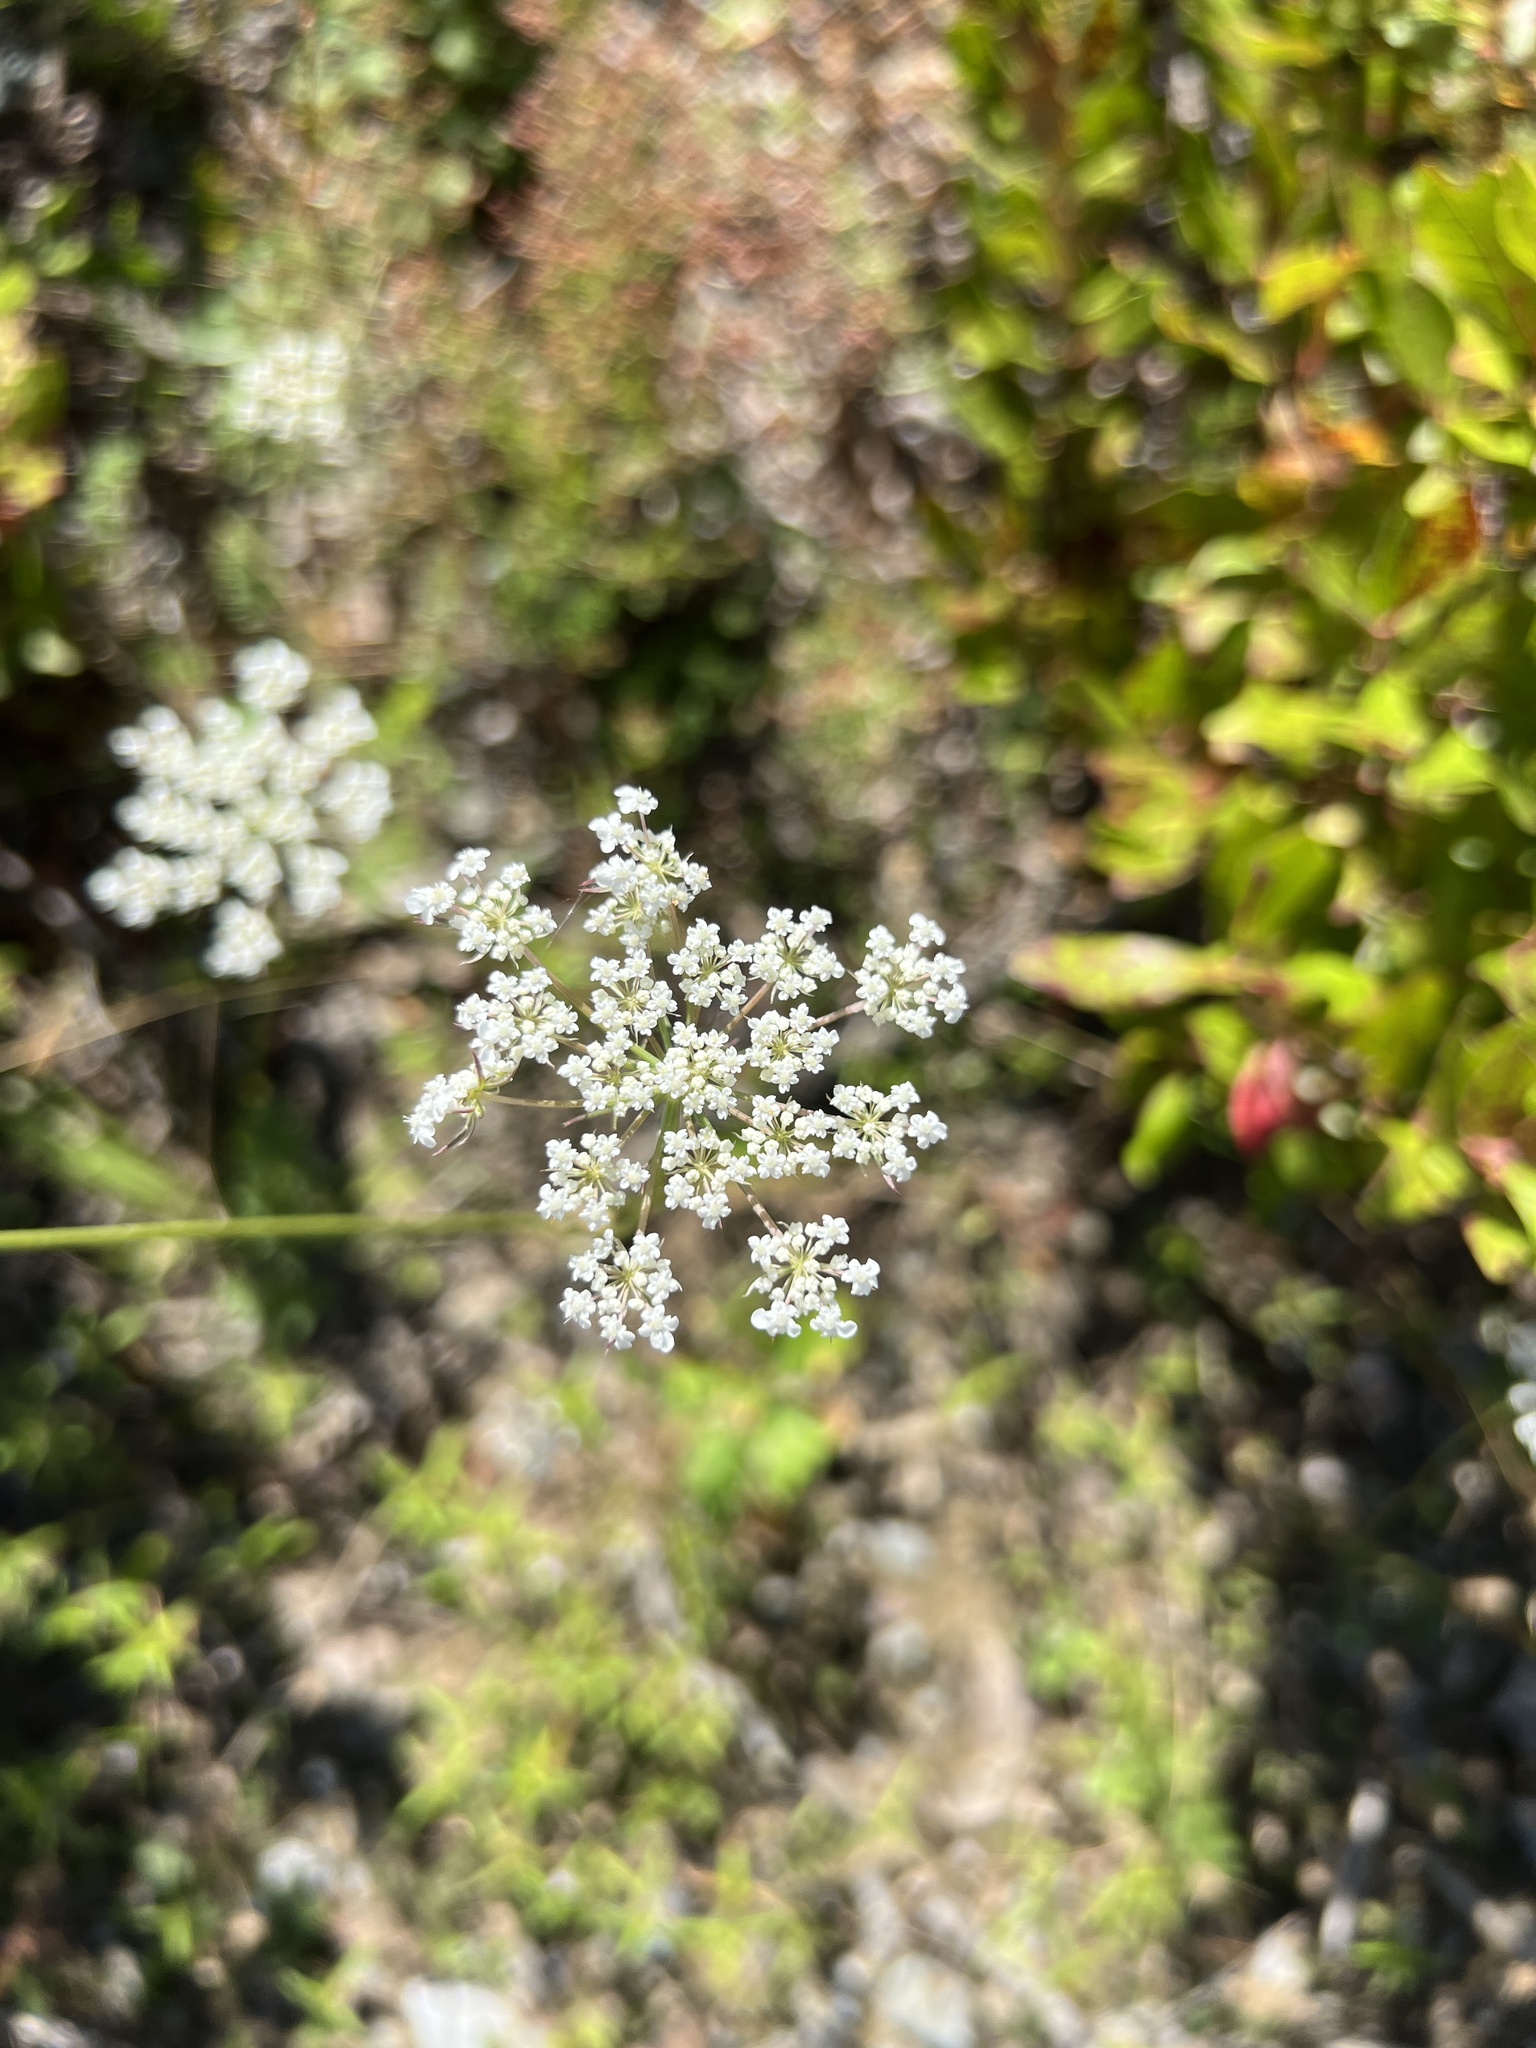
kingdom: Plantae
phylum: Tracheophyta
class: Magnoliopsida
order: Apiales
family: Apiaceae
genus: Daucus
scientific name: Daucus carota
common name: Wild carrot
